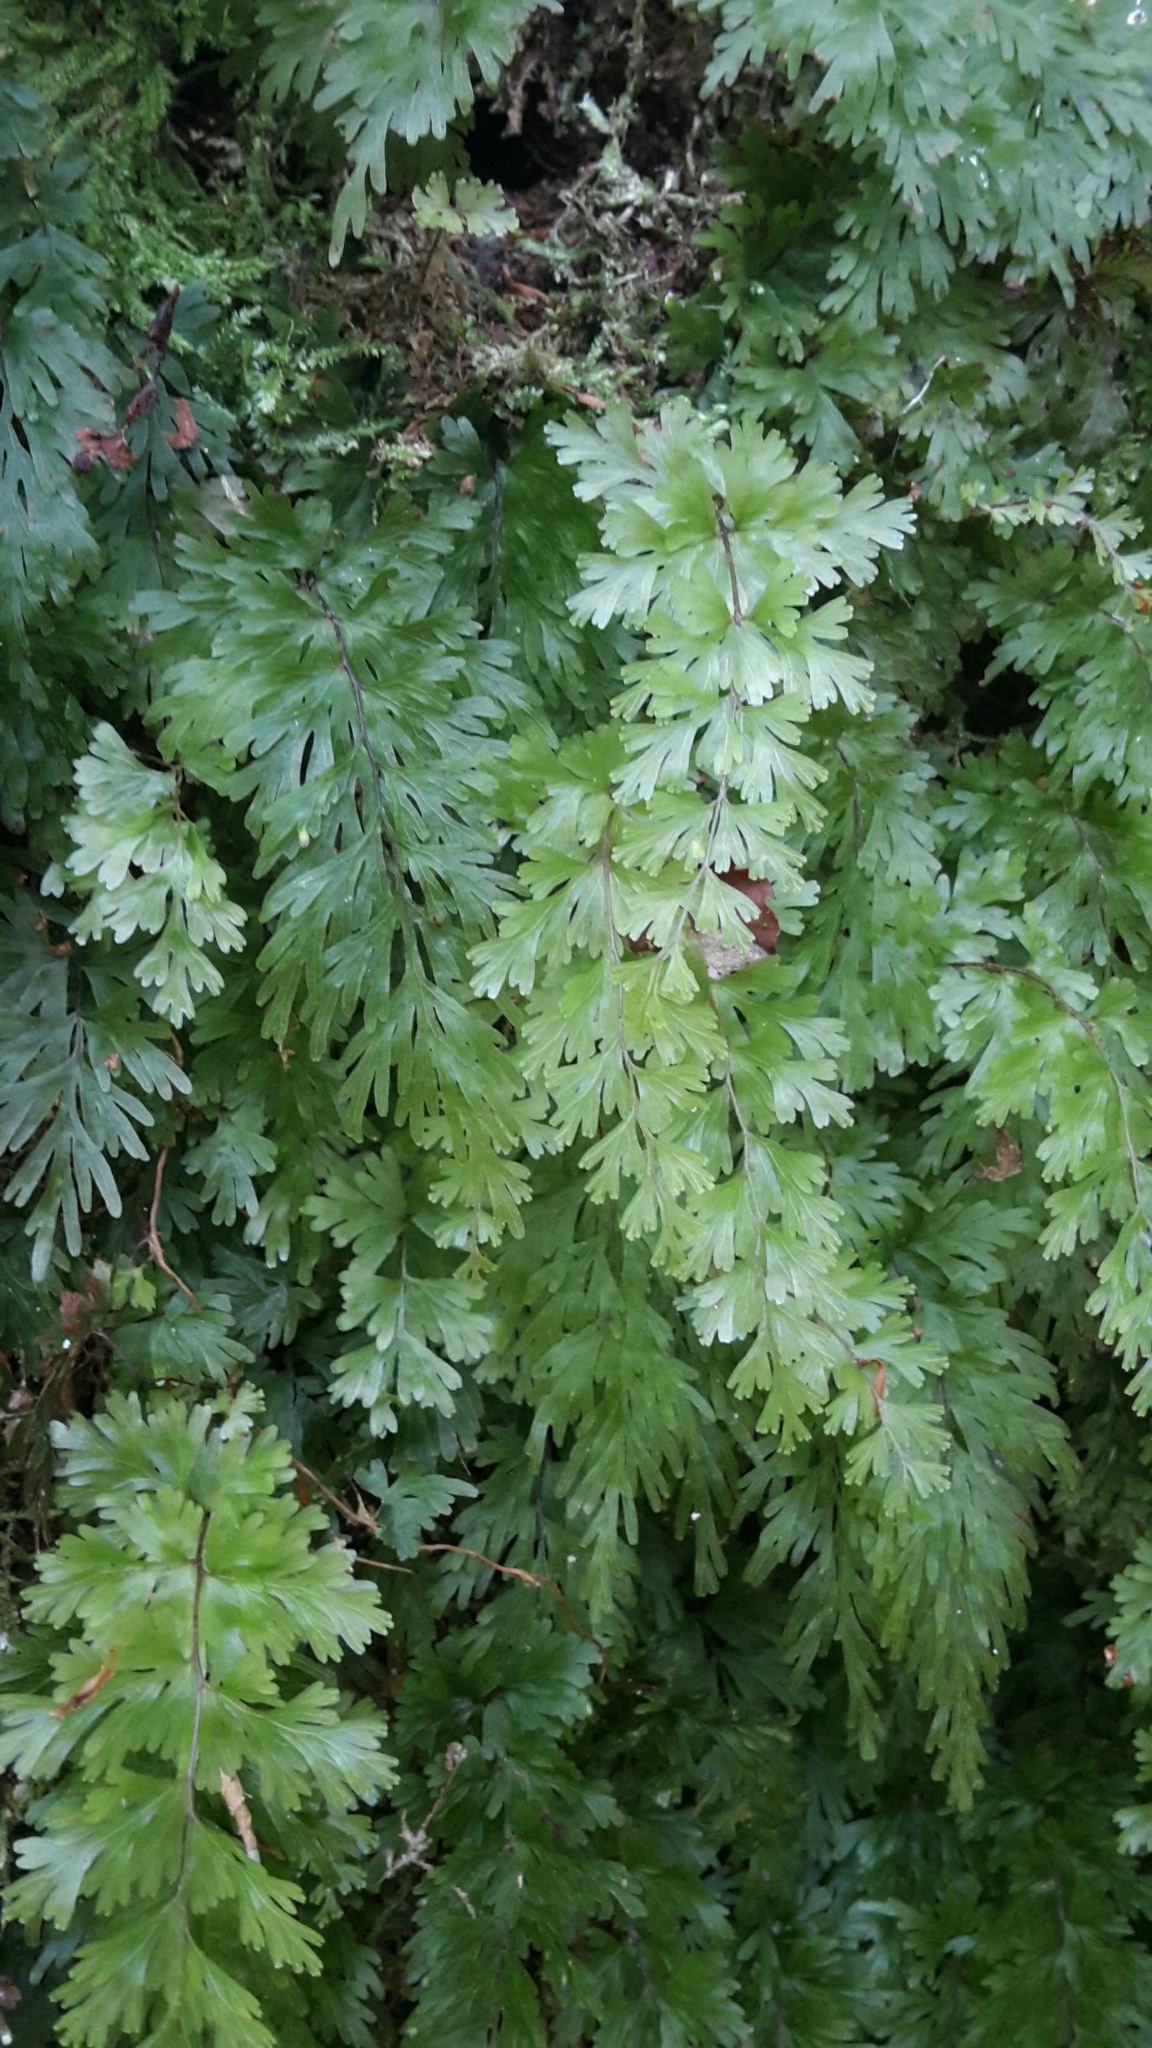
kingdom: Plantae
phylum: Tracheophyta
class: Polypodiopsida
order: Hymenophyllales
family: Hymenophyllaceae
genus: Hymenophyllum
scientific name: Hymenophyllum flabellatum
